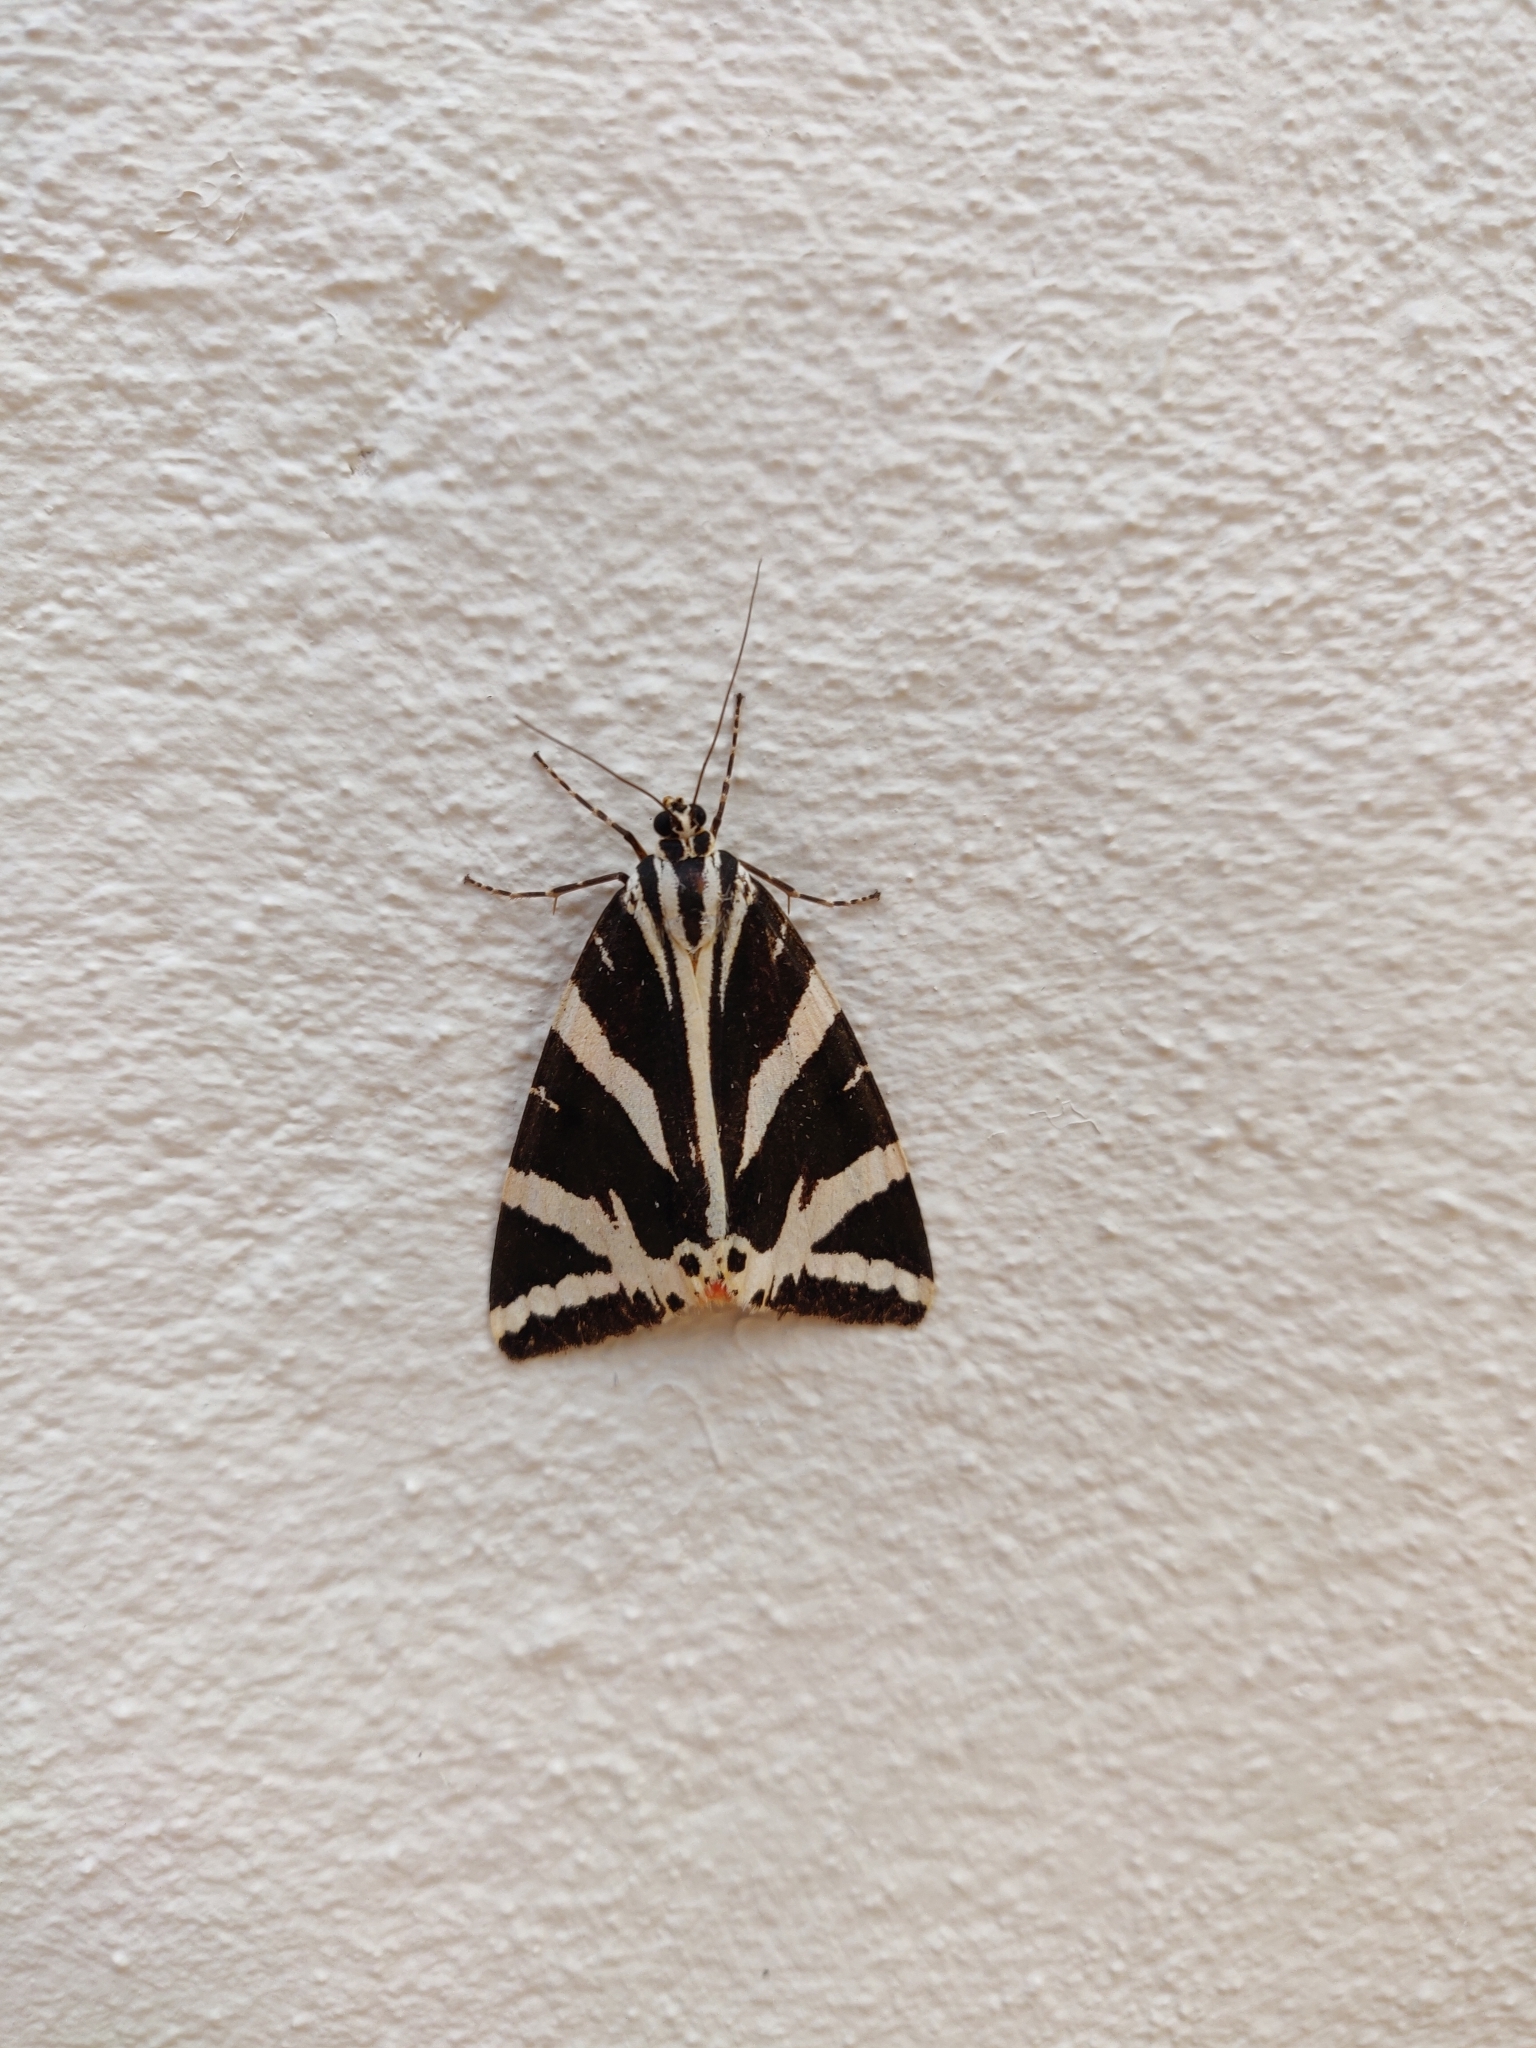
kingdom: Animalia
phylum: Arthropoda
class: Insecta
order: Lepidoptera
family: Erebidae
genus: Euplagia
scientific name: Euplagia quadripunctaria
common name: Jersey tiger
